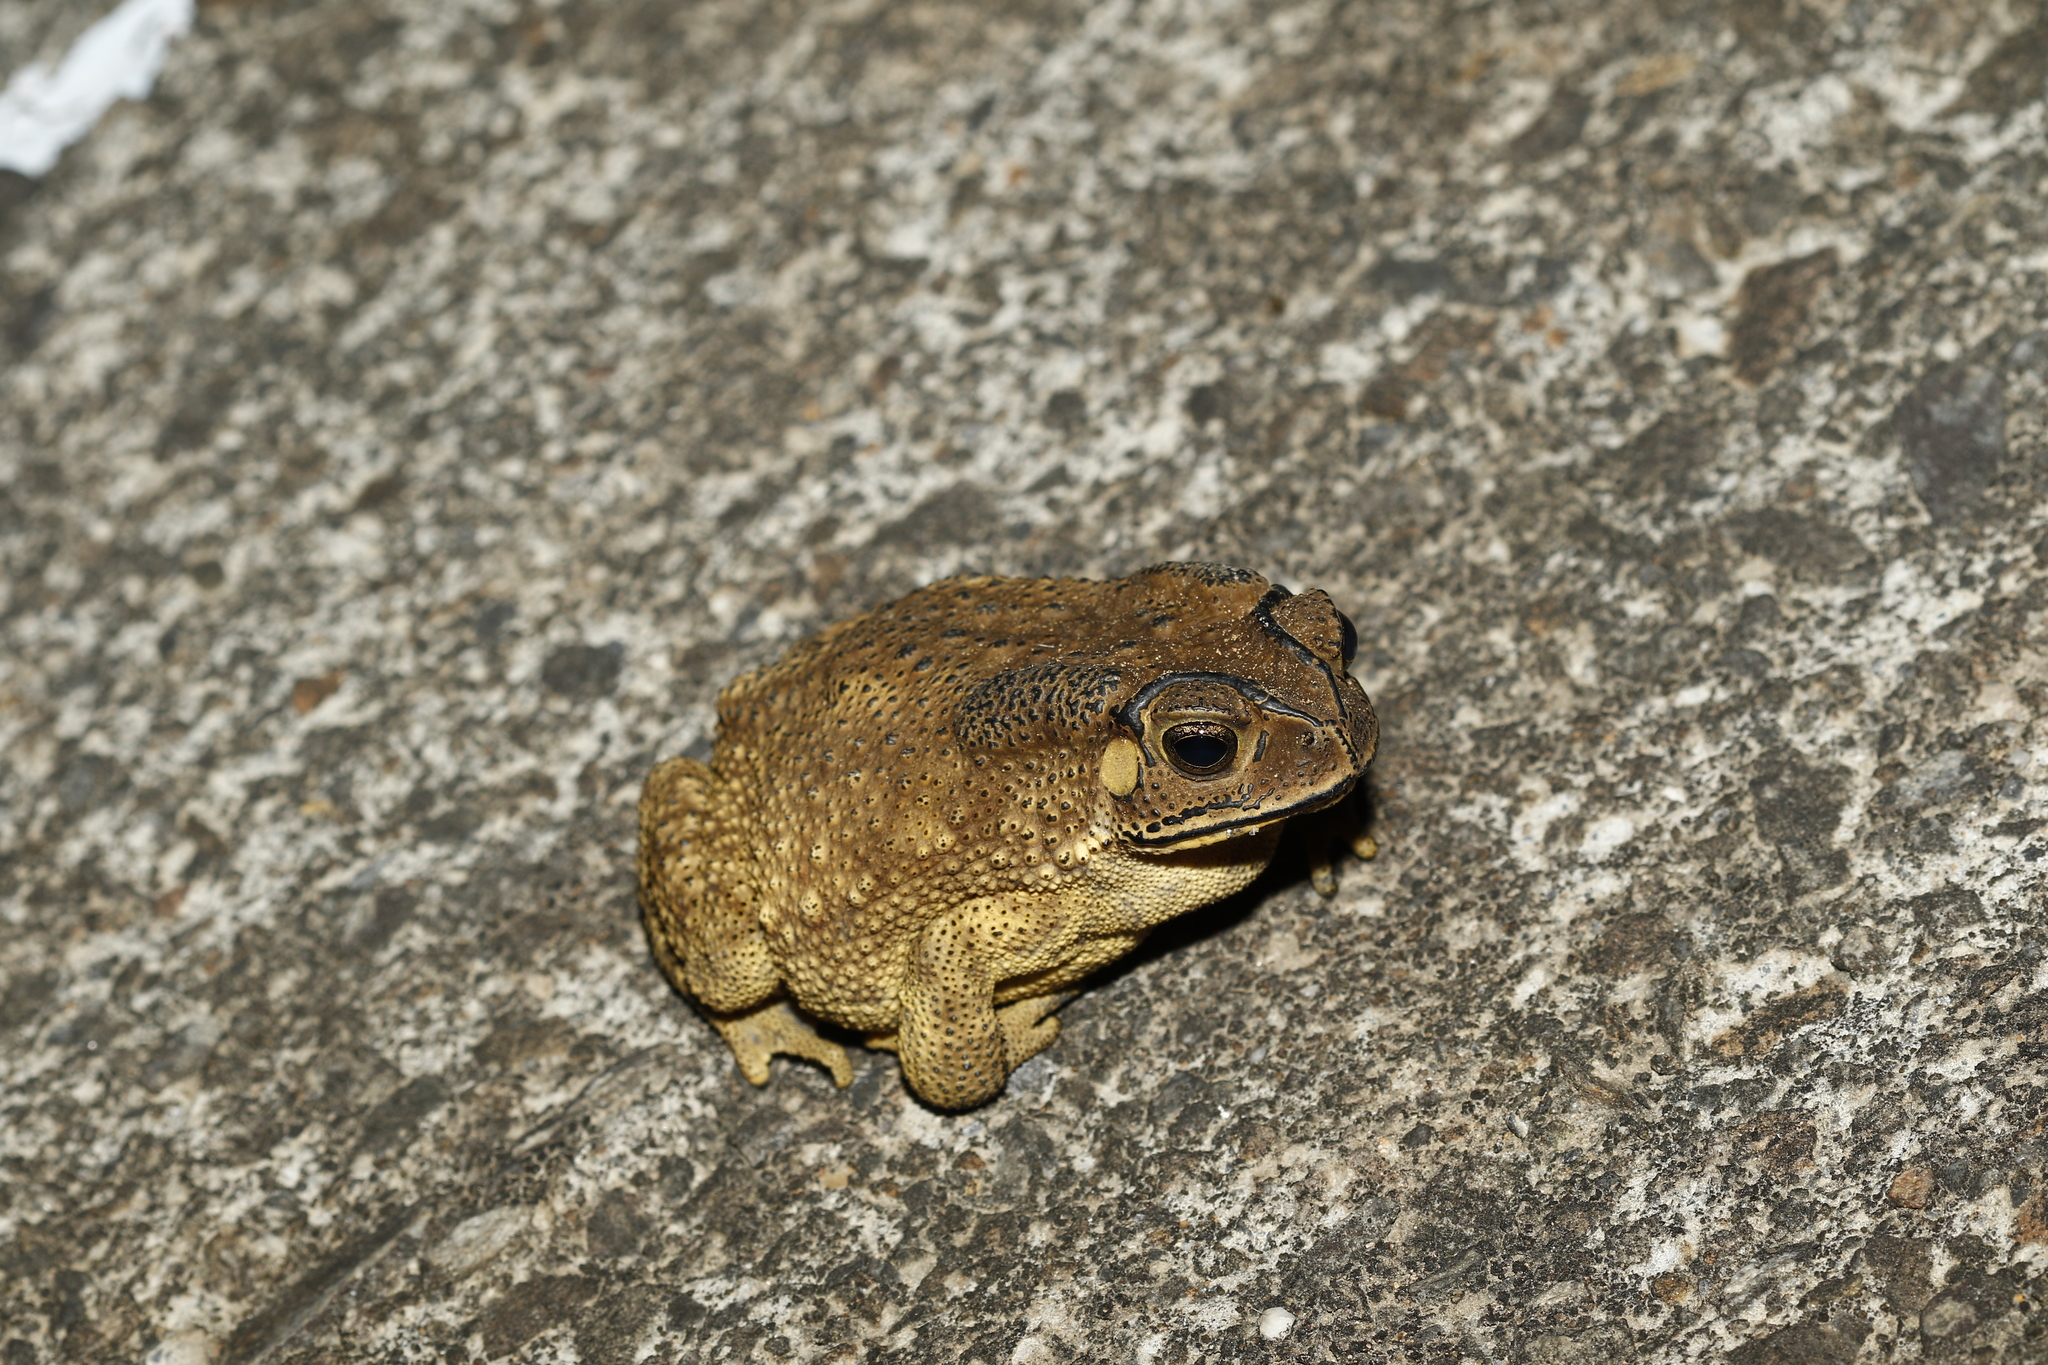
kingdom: Animalia
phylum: Chordata
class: Amphibia
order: Anura
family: Bufonidae
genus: Duttaphrynus
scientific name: Duttaphrynus melanostictus
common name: Common sunda toad
